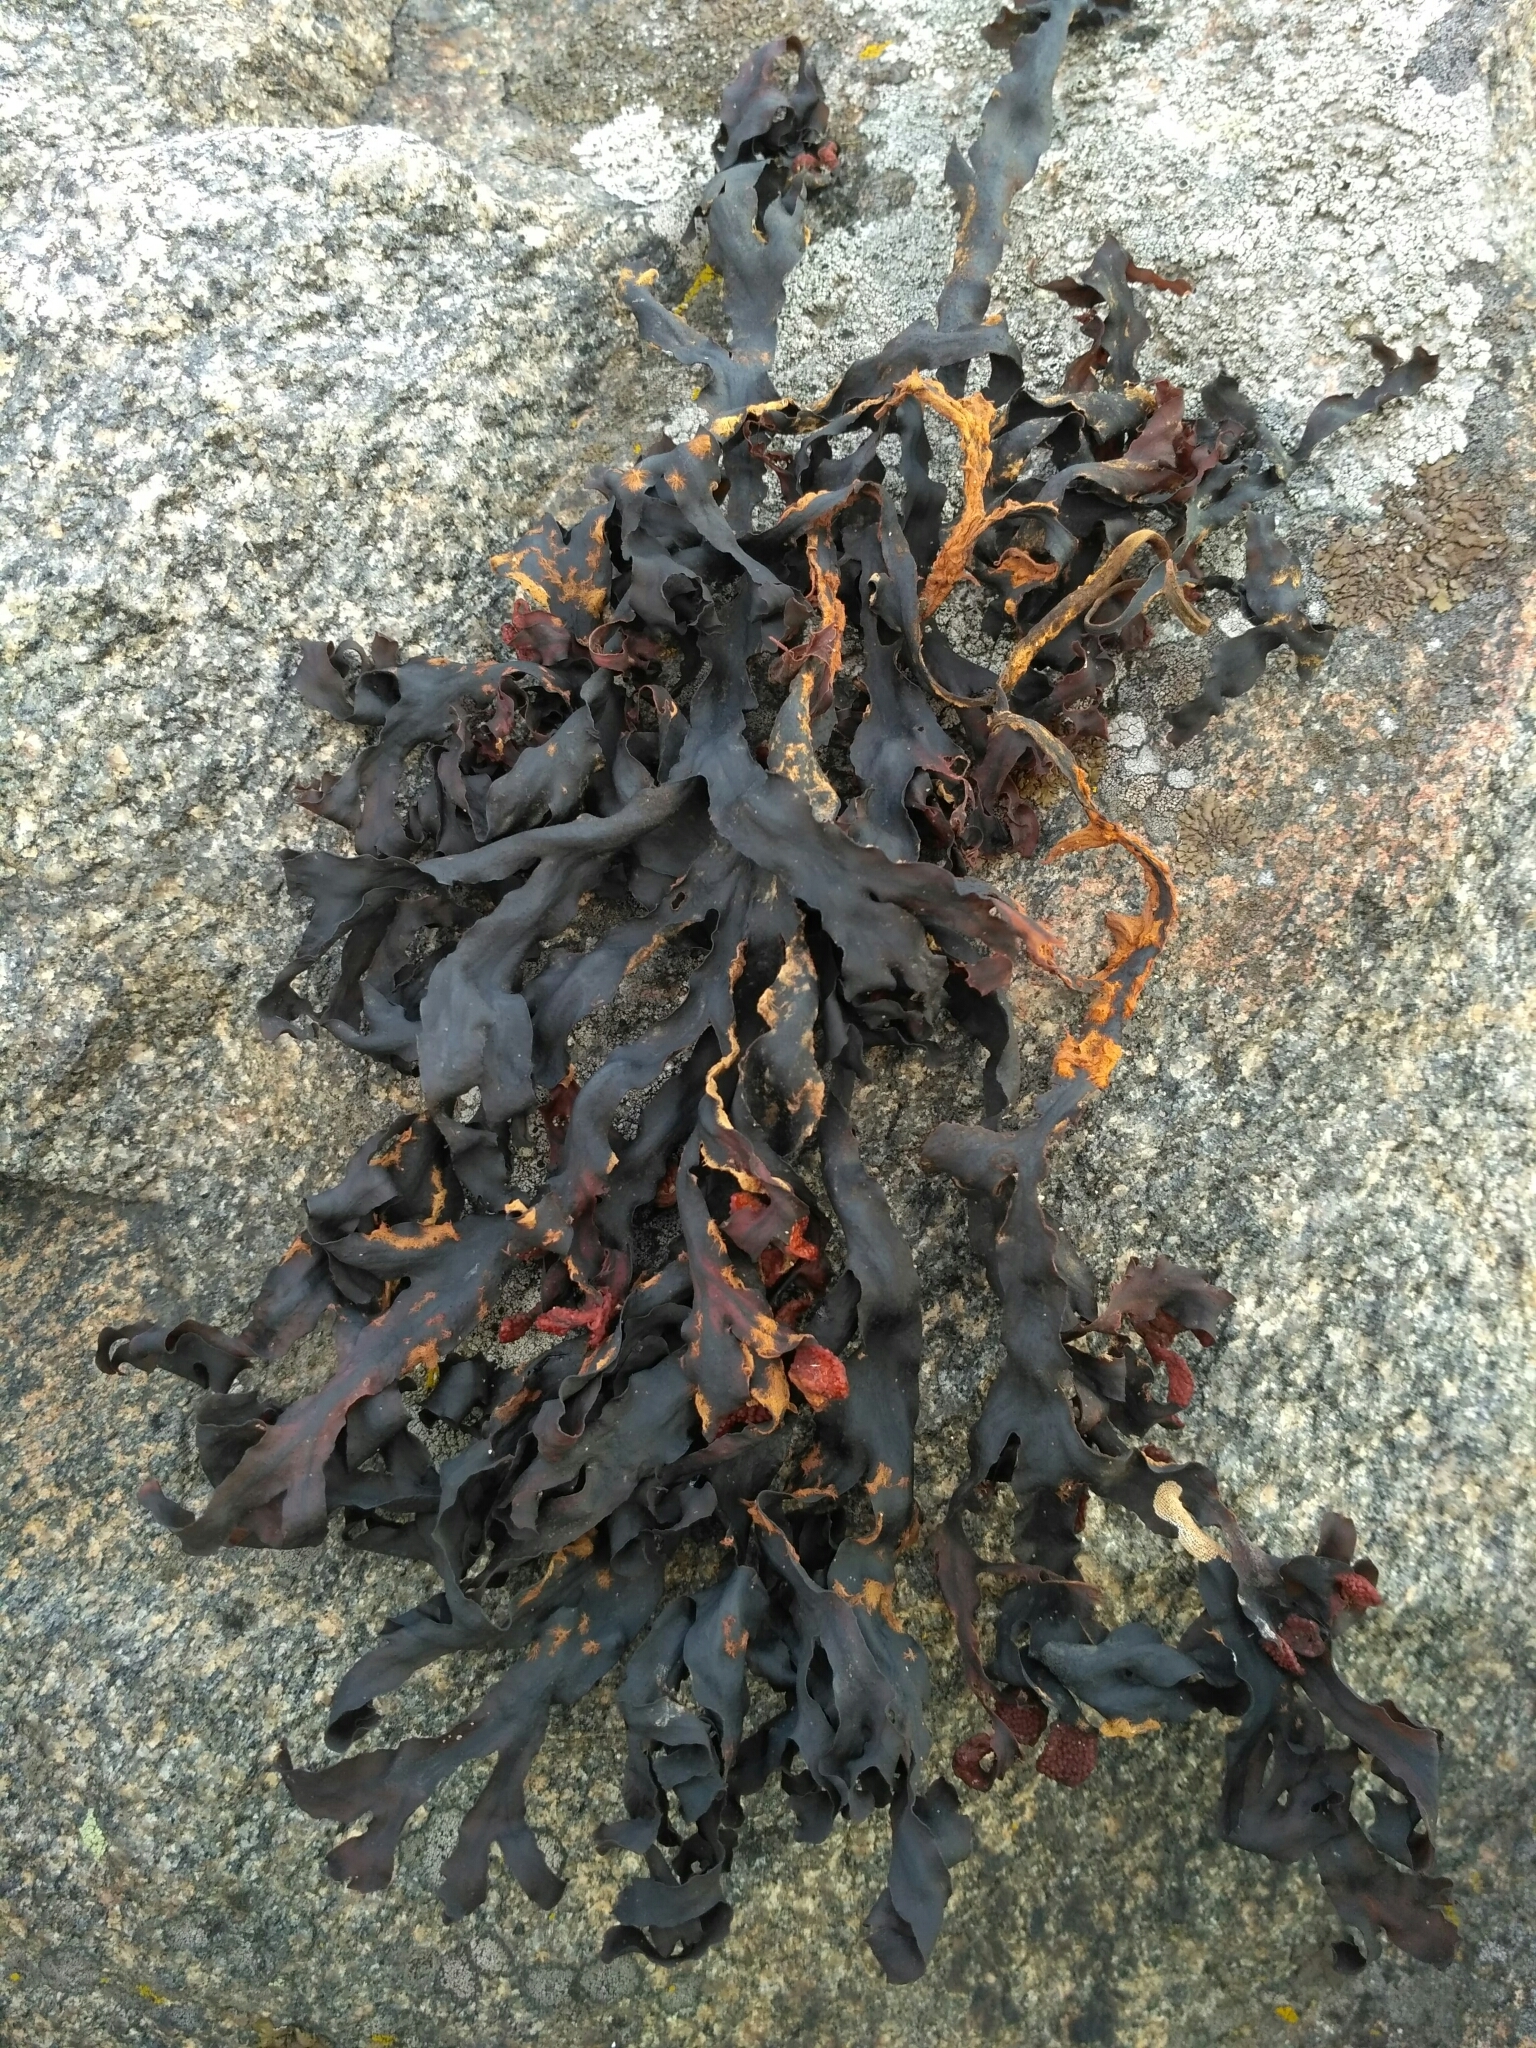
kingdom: Chromista
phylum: Ochrophyta
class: Phaeophyceae
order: Fucales
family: Fucaceae
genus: Fucus
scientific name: Fucus vesiculosus
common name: Bladder wrack
